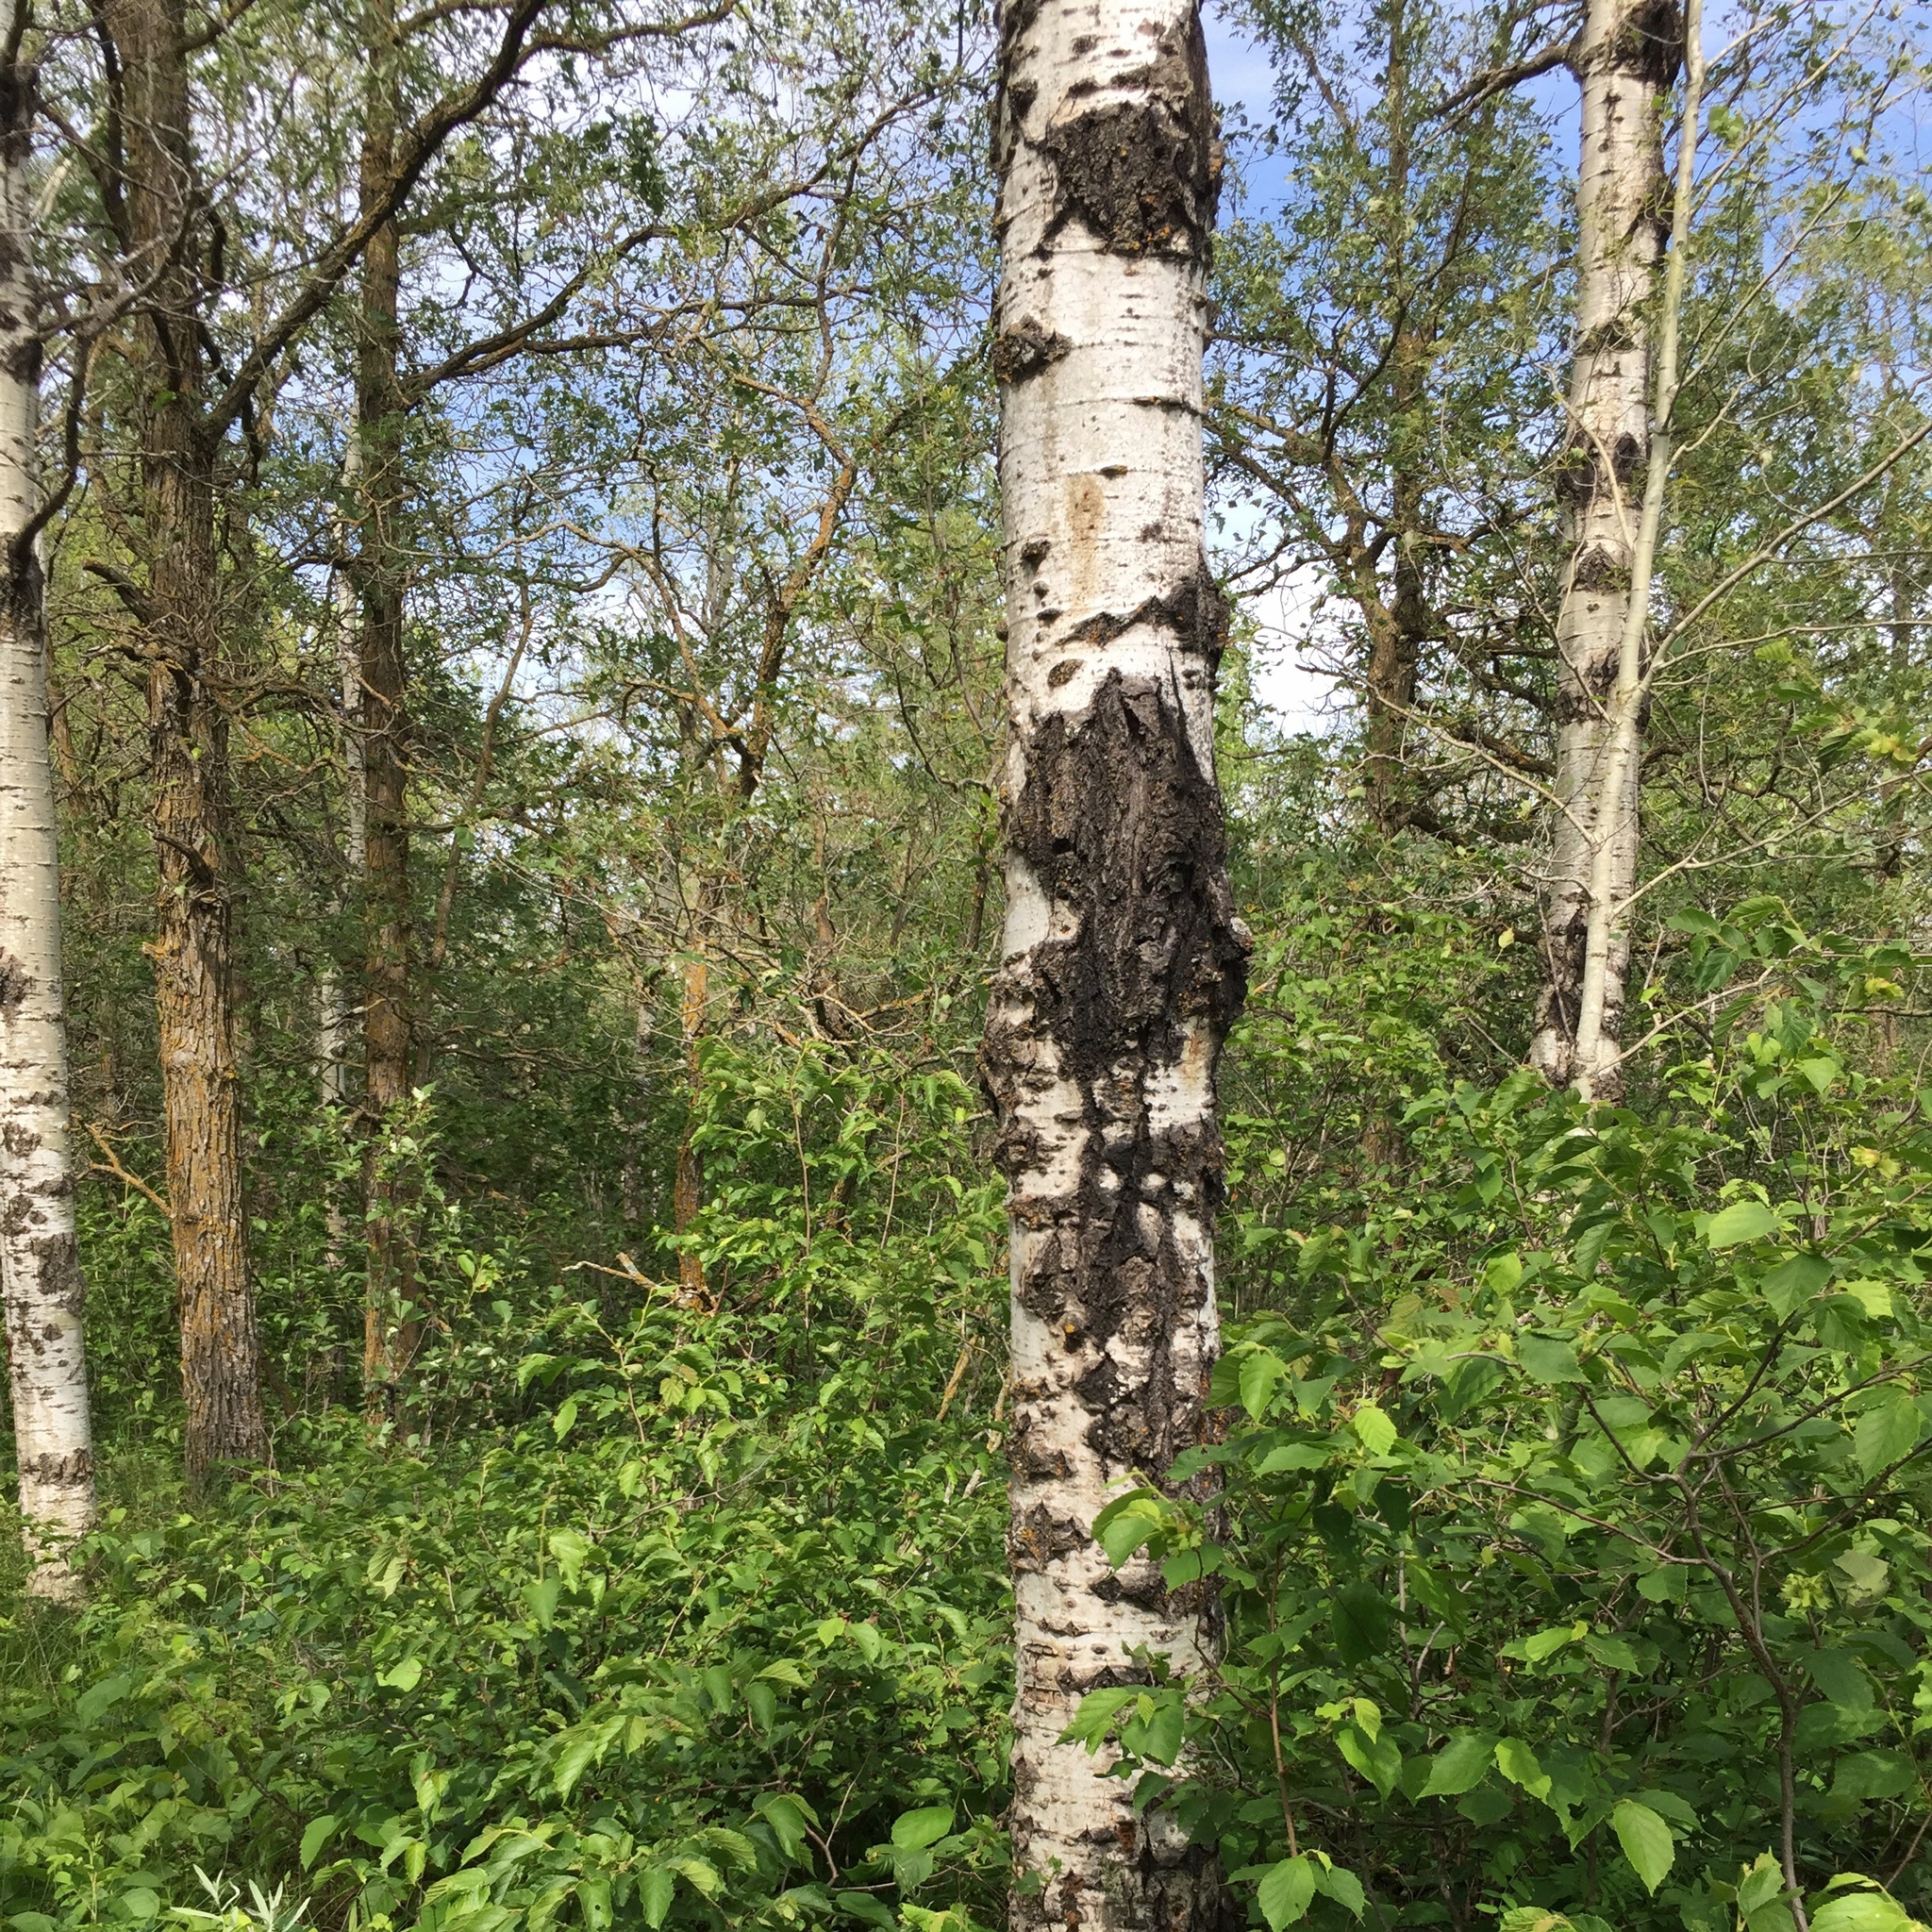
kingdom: Plantae
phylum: Tracheophyta
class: Magnoliopsida
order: Malpighiales
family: Salicaceae
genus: Populus
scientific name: Populus tremuloides
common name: Quaking aspen
